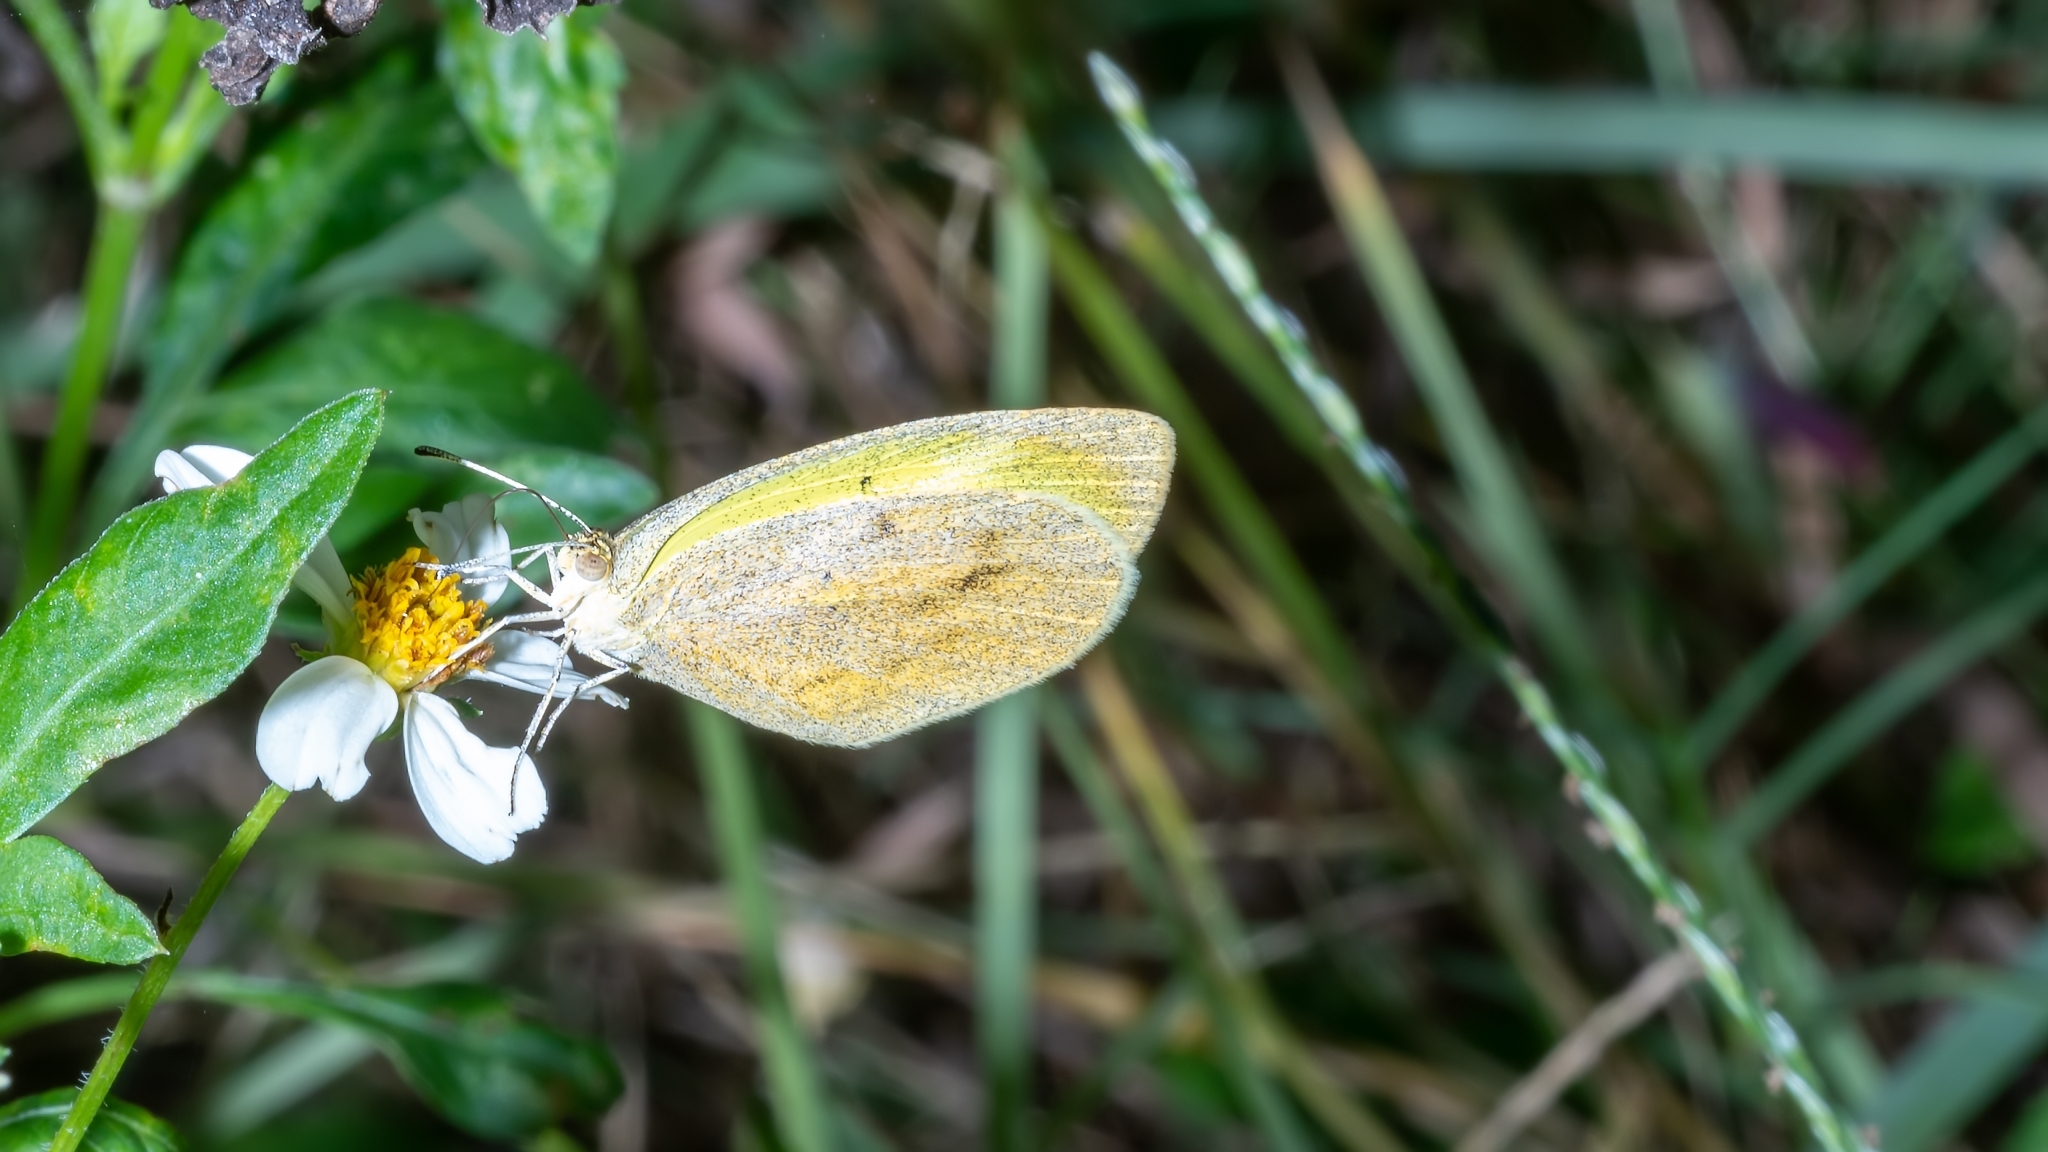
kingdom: Animalia
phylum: Arthropoda
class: Insecta
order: Lepidoptera
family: Pieridae
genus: Eurema
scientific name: Eurema daira
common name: Barred sulphur
